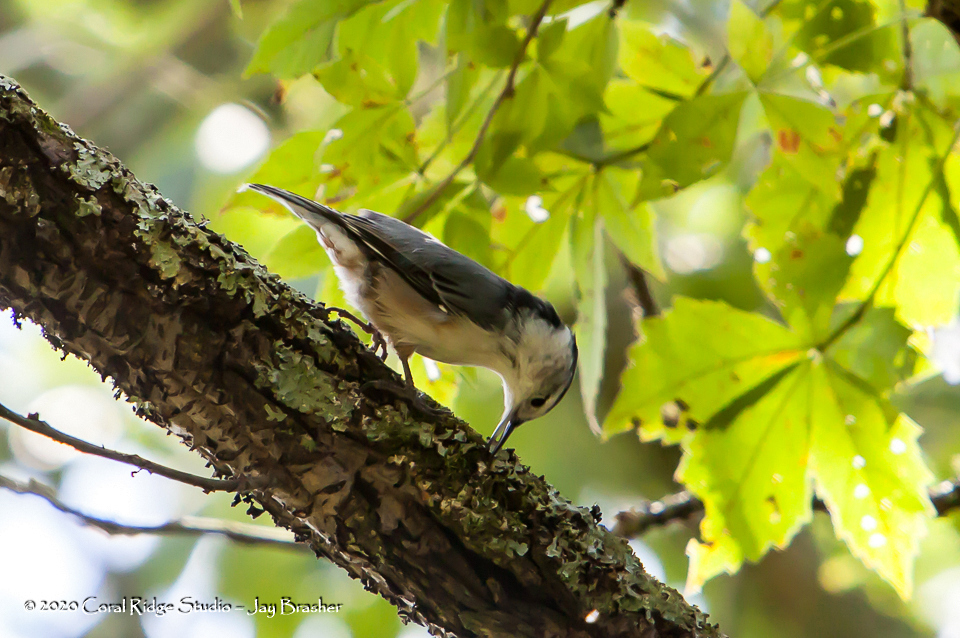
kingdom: Animalia
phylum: Chordata
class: Aves
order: Passeriformes
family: Sittidae
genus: Sitta
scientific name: Sitta carolinensis
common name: White-breasted nuthatch
